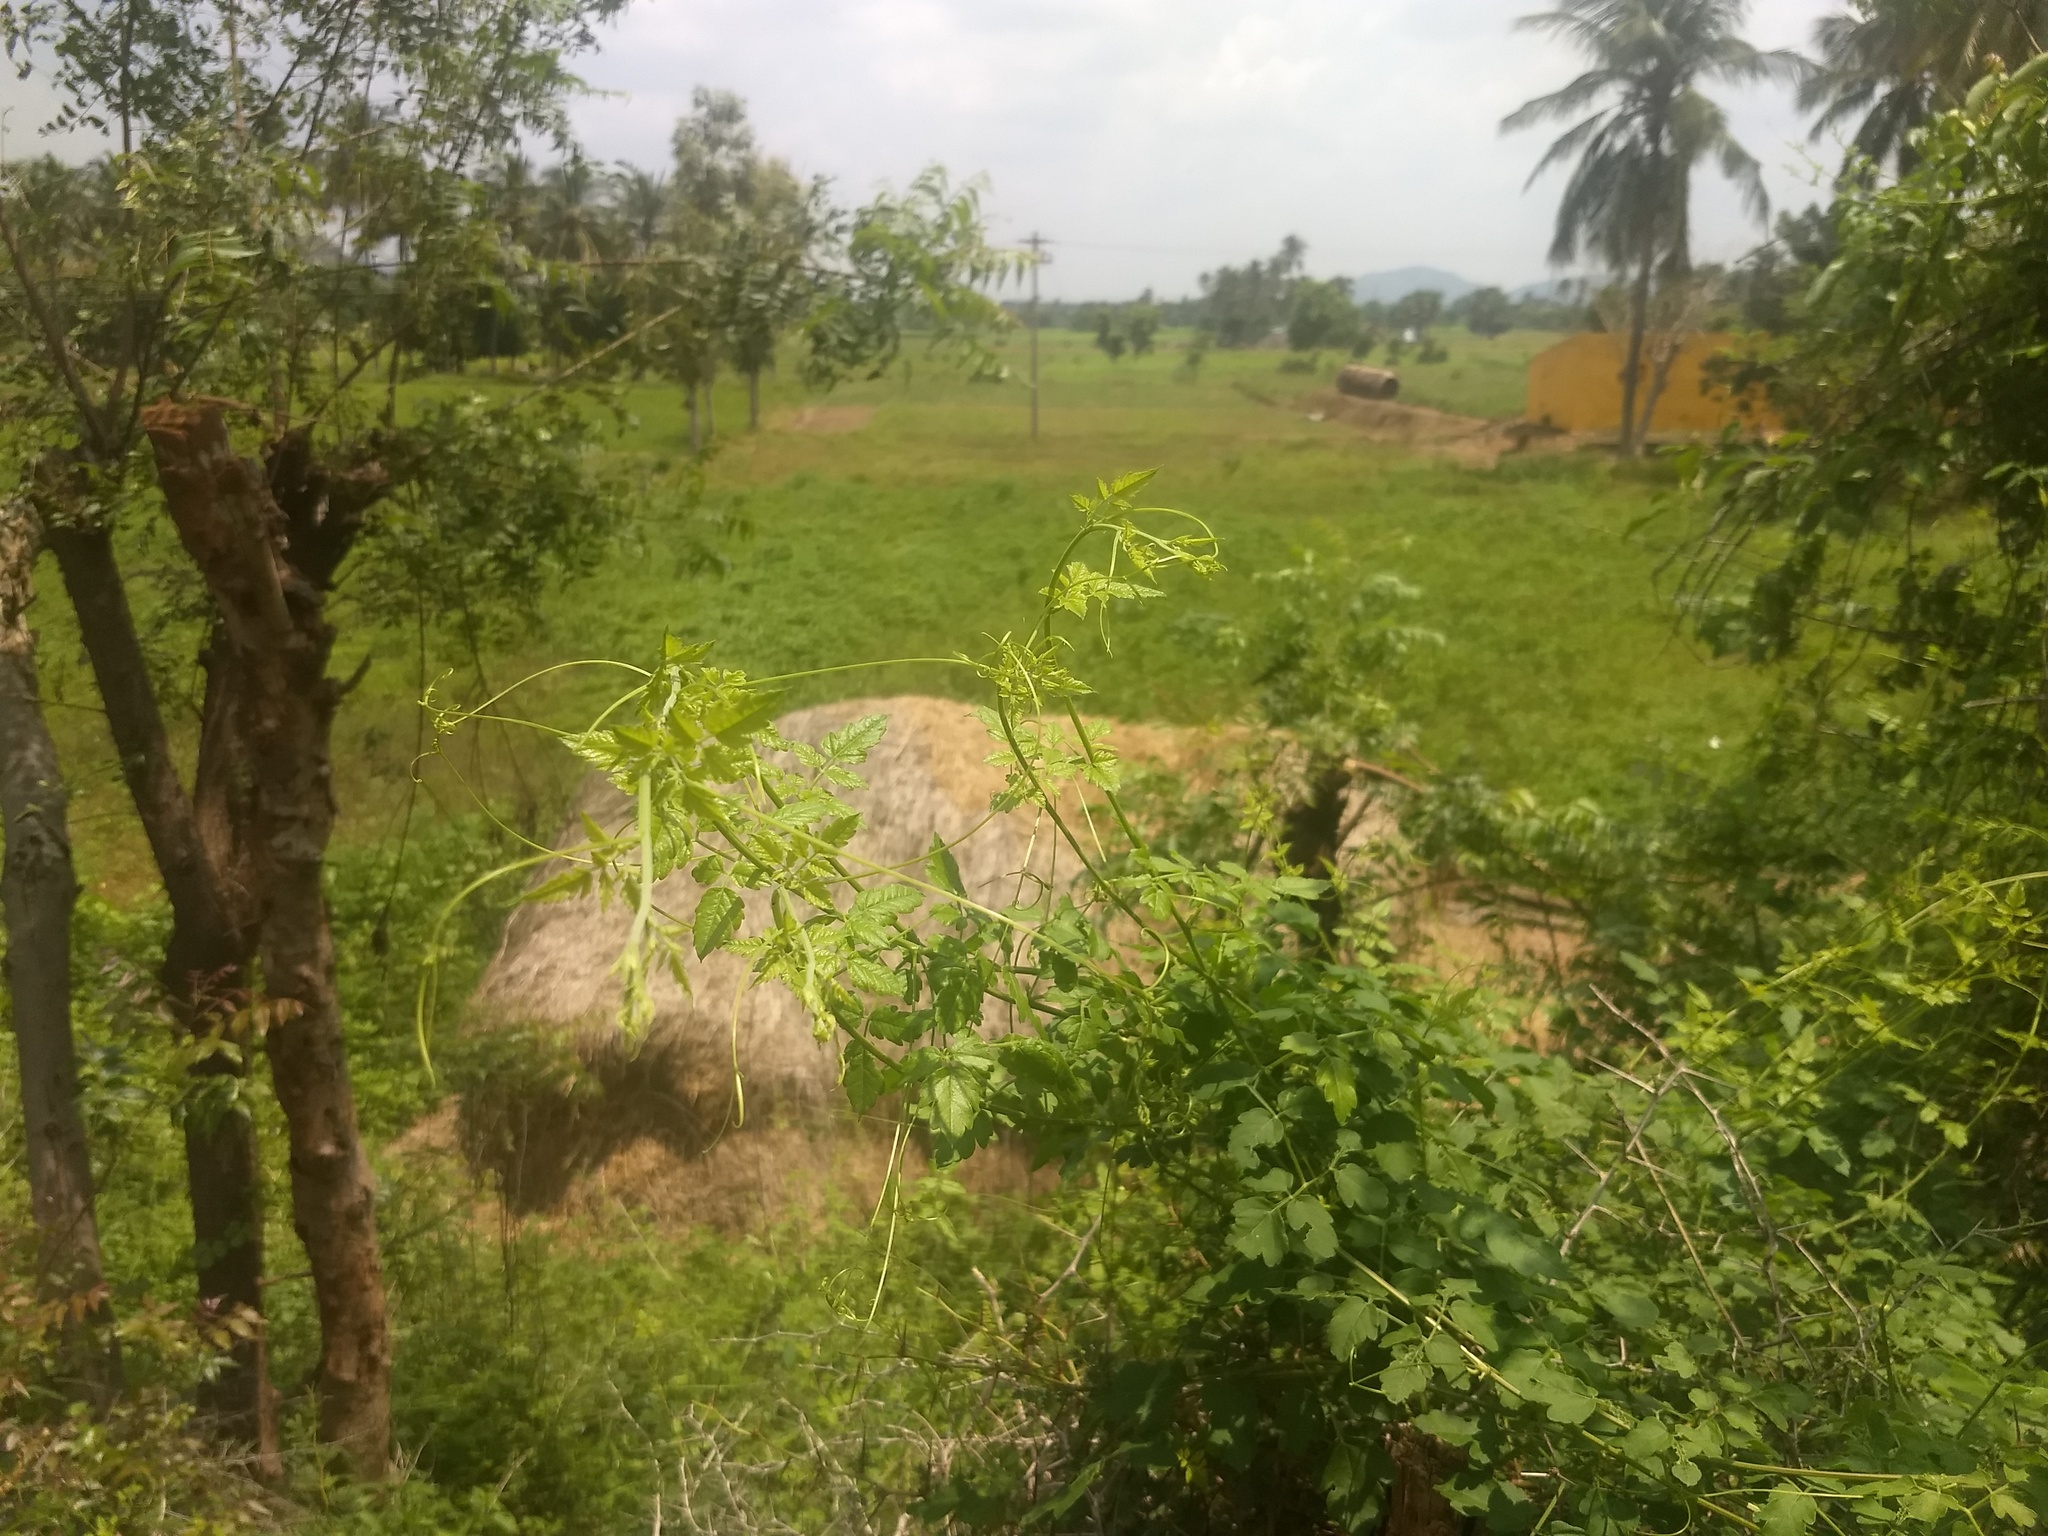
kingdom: Plantae
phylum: Tracheophyta
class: Magnoliopsida
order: Sapindales
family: Sapindaceae
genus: Cardiospermum
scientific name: Cardiospermum halicacabum
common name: Balloon vine
